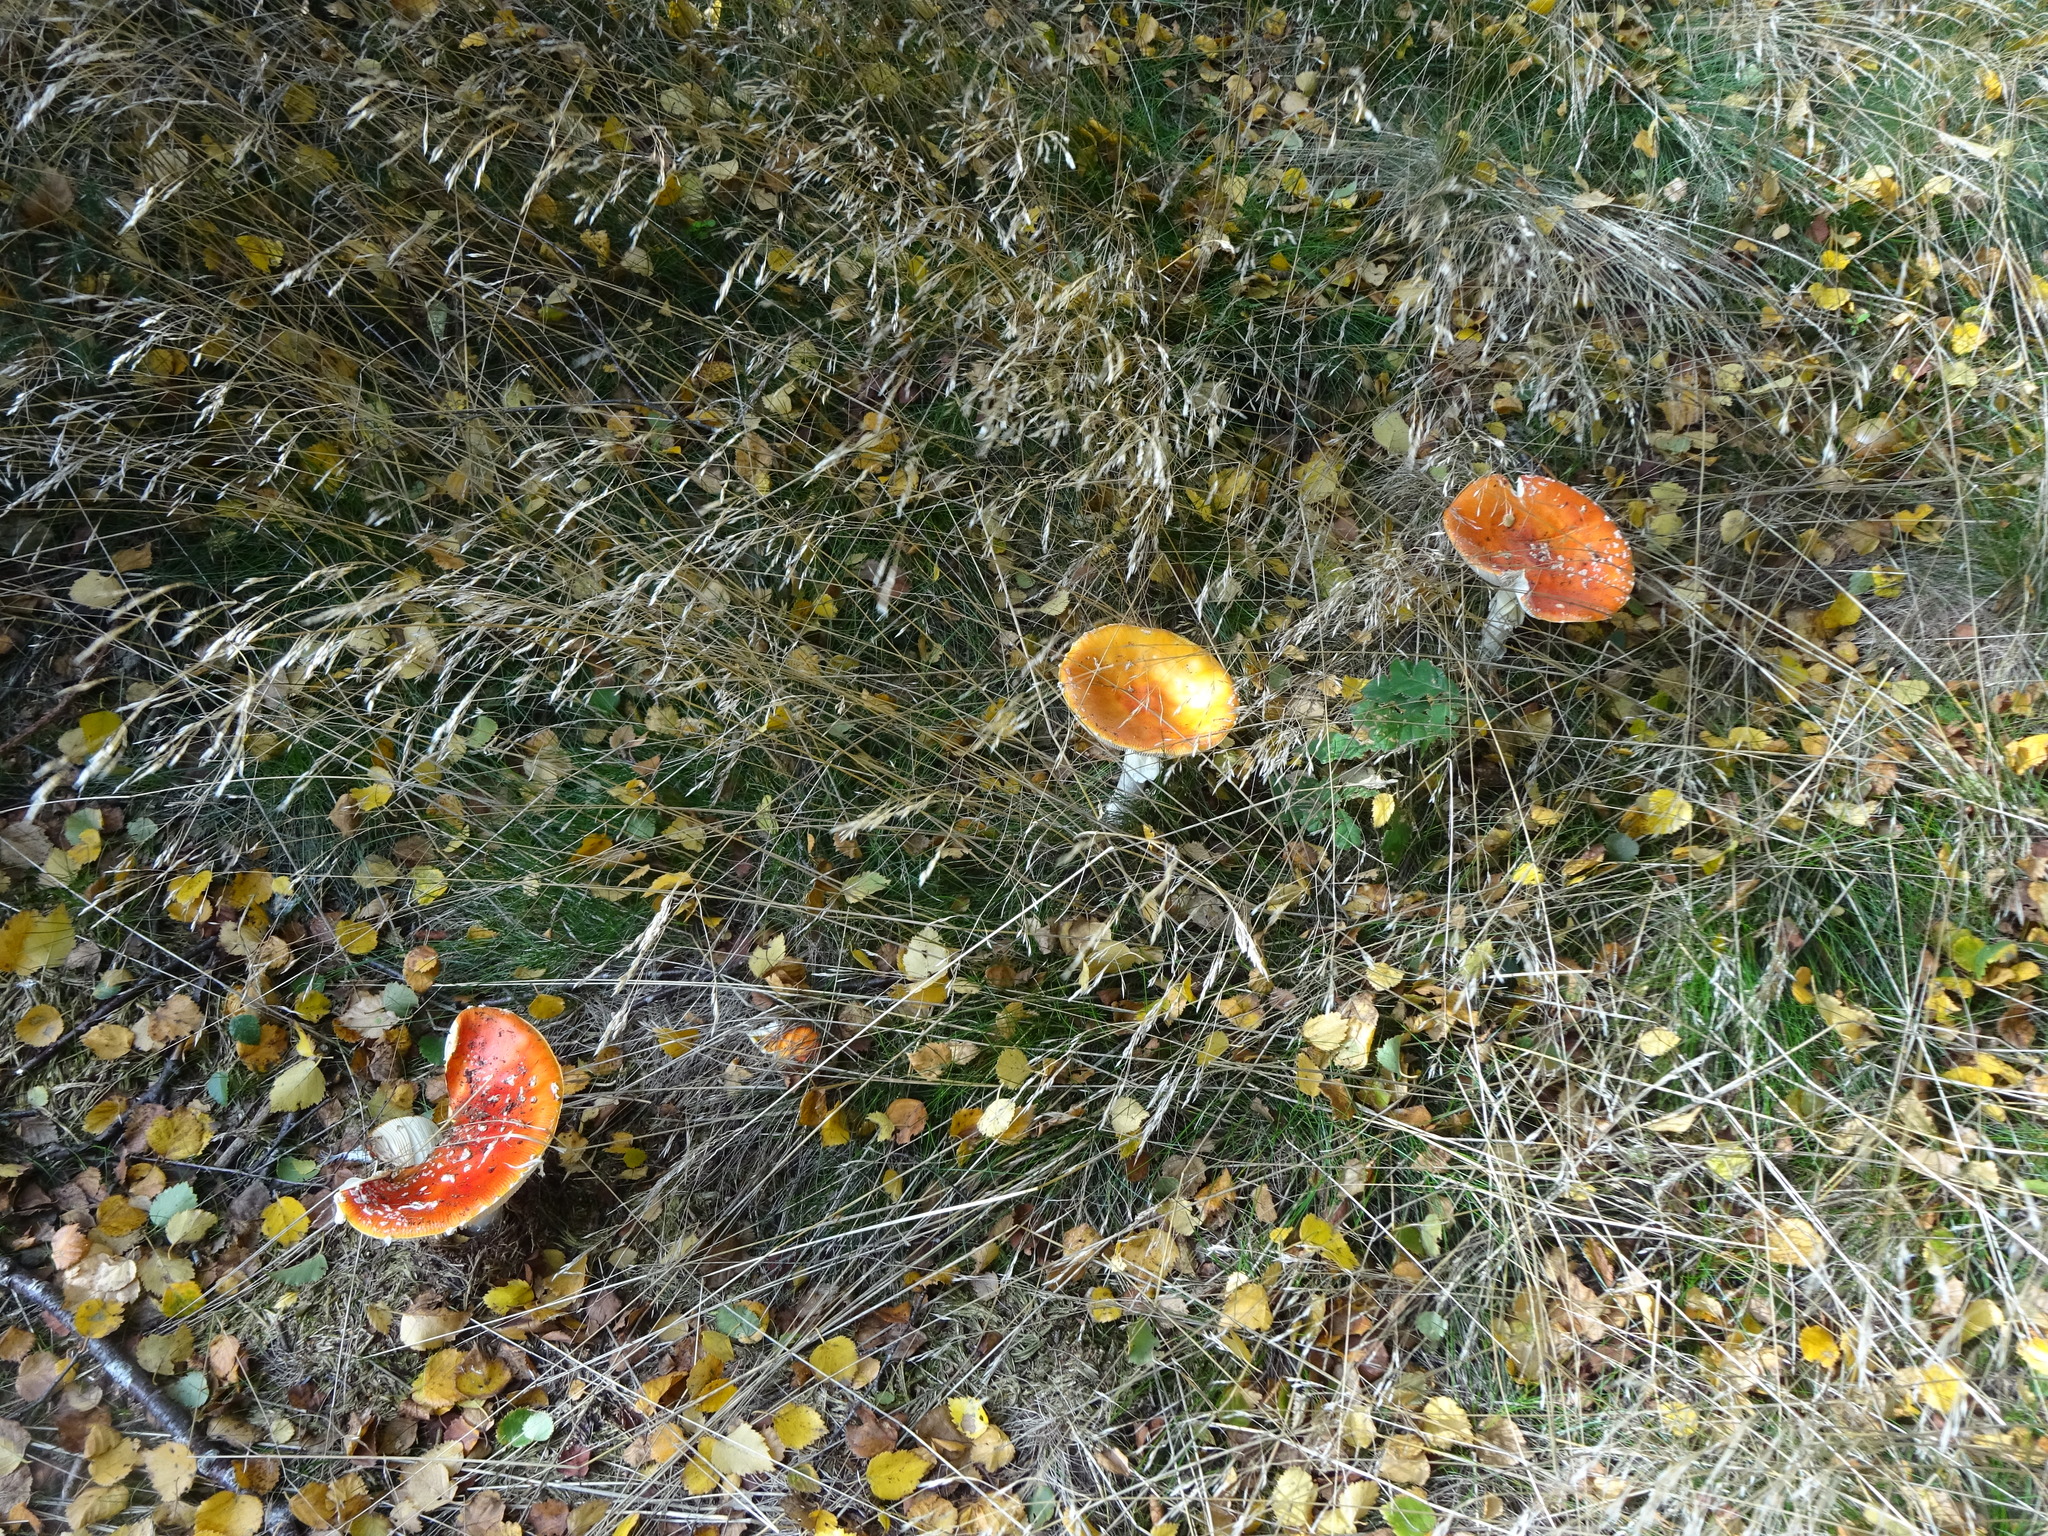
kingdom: Fungi
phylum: Basidiomycota
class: Agaricomycetes
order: Agaricales
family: Amanitaceae
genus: Amanita
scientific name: Amanita muscaria
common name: Fly agaric
